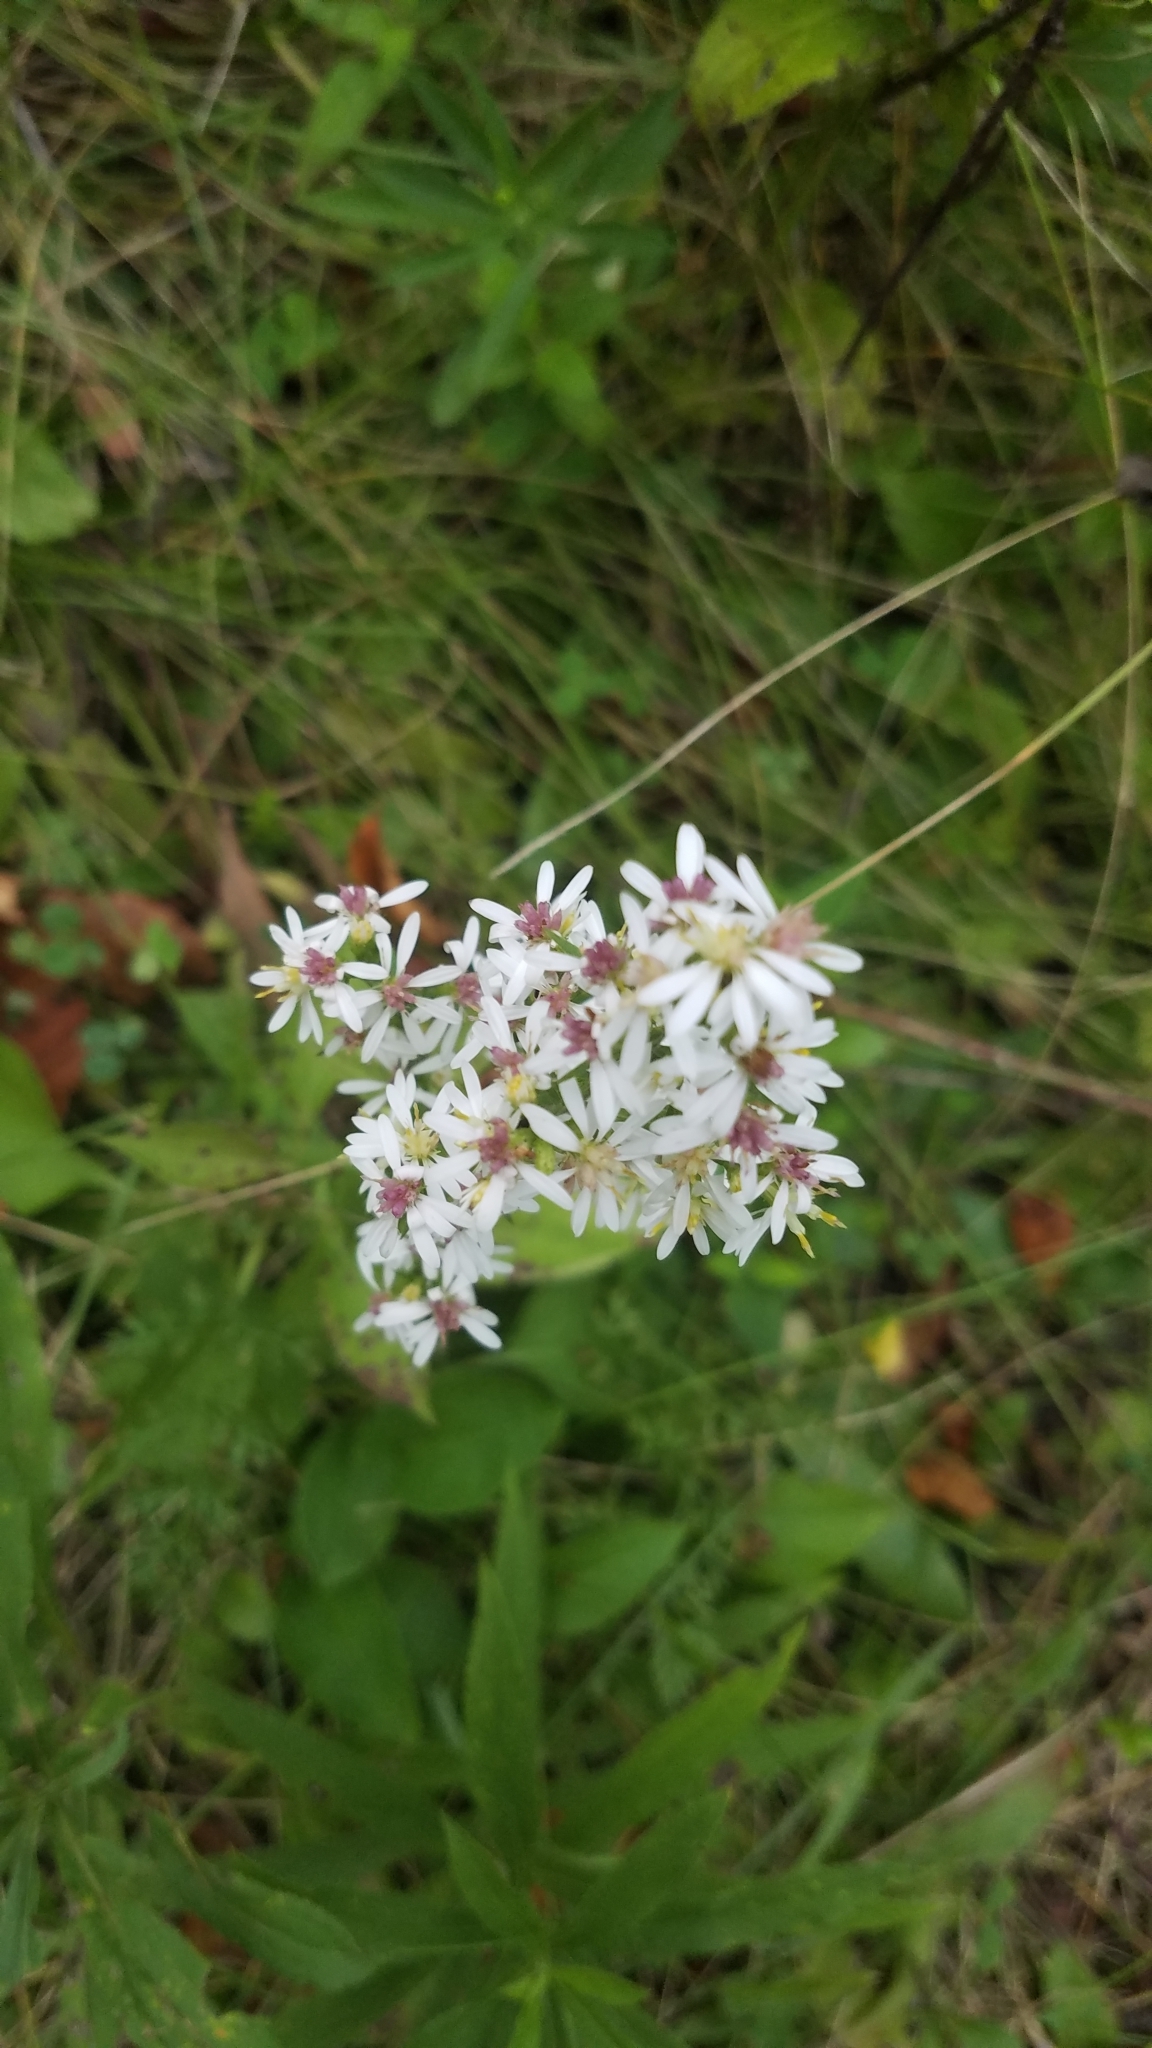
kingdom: Plantae
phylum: Tracheophyta
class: Magnoliopsida
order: Asterales
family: Asteraceae
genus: Symphyotrichum
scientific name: Symphyotrichum urophyllum
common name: Arrow-leaved aster
